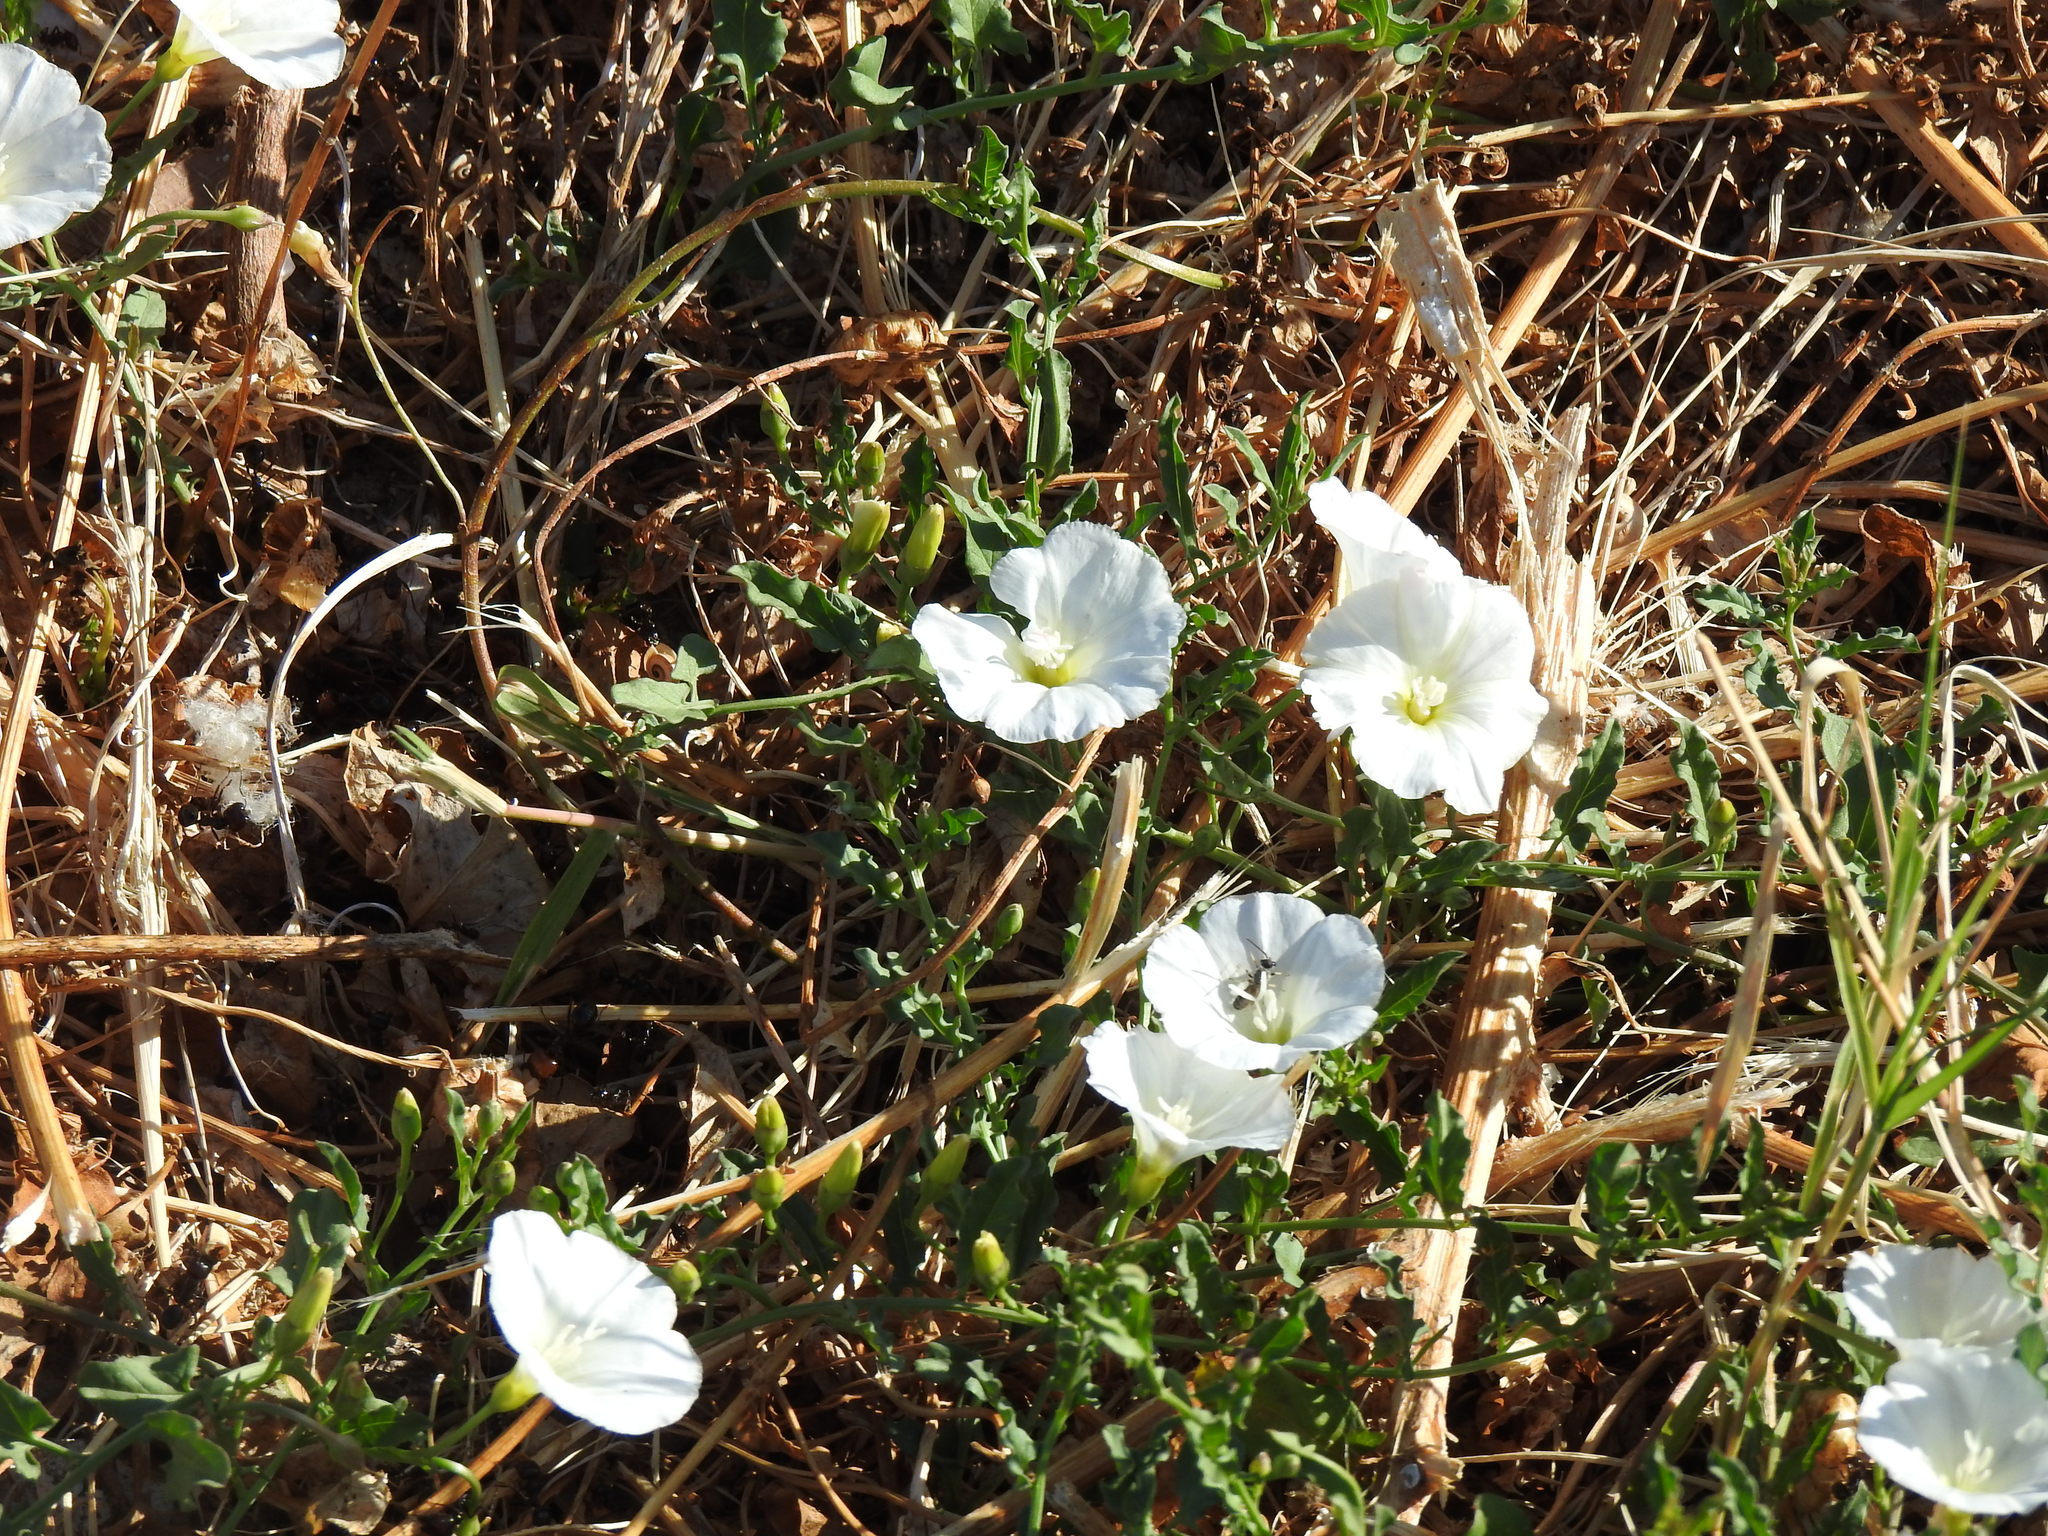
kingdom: Plantae
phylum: Tracheophyta
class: Magnoliopsida
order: Solanales
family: Convolvulaceae
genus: Convolvulus
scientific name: Convolvulus arvensis
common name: Field bindweed
